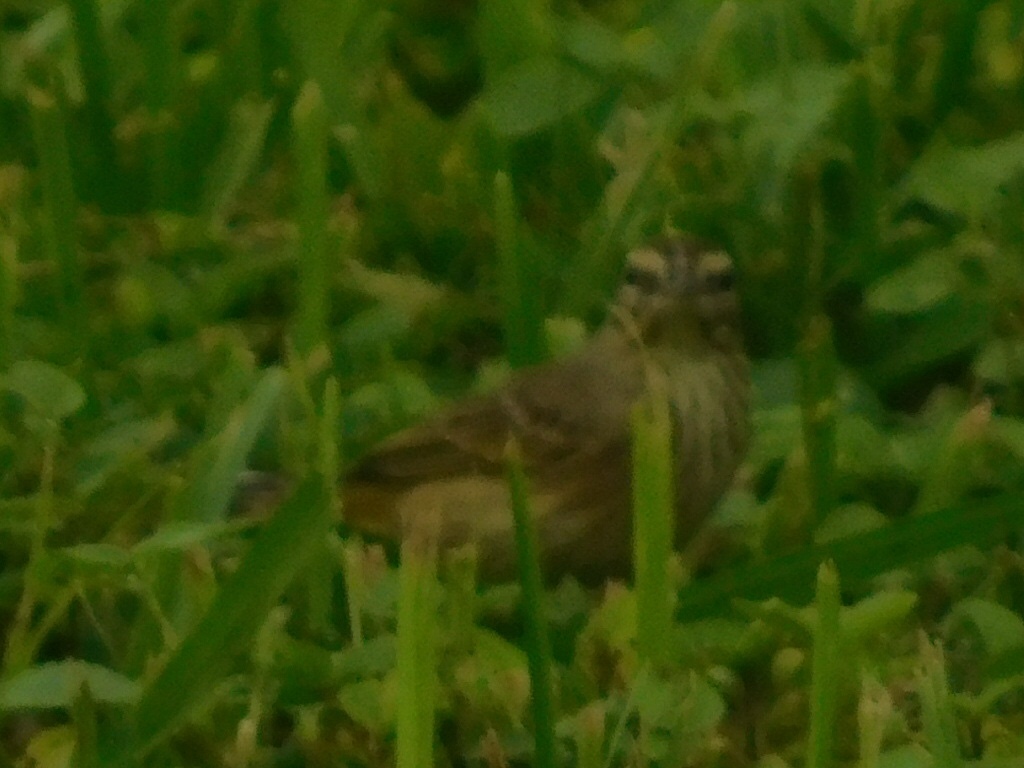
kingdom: Animalia
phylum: Chordata
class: Aves
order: Passeriformes
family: Parulidae
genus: Setophaga
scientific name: Setophaga palmarum
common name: Palm warbler
